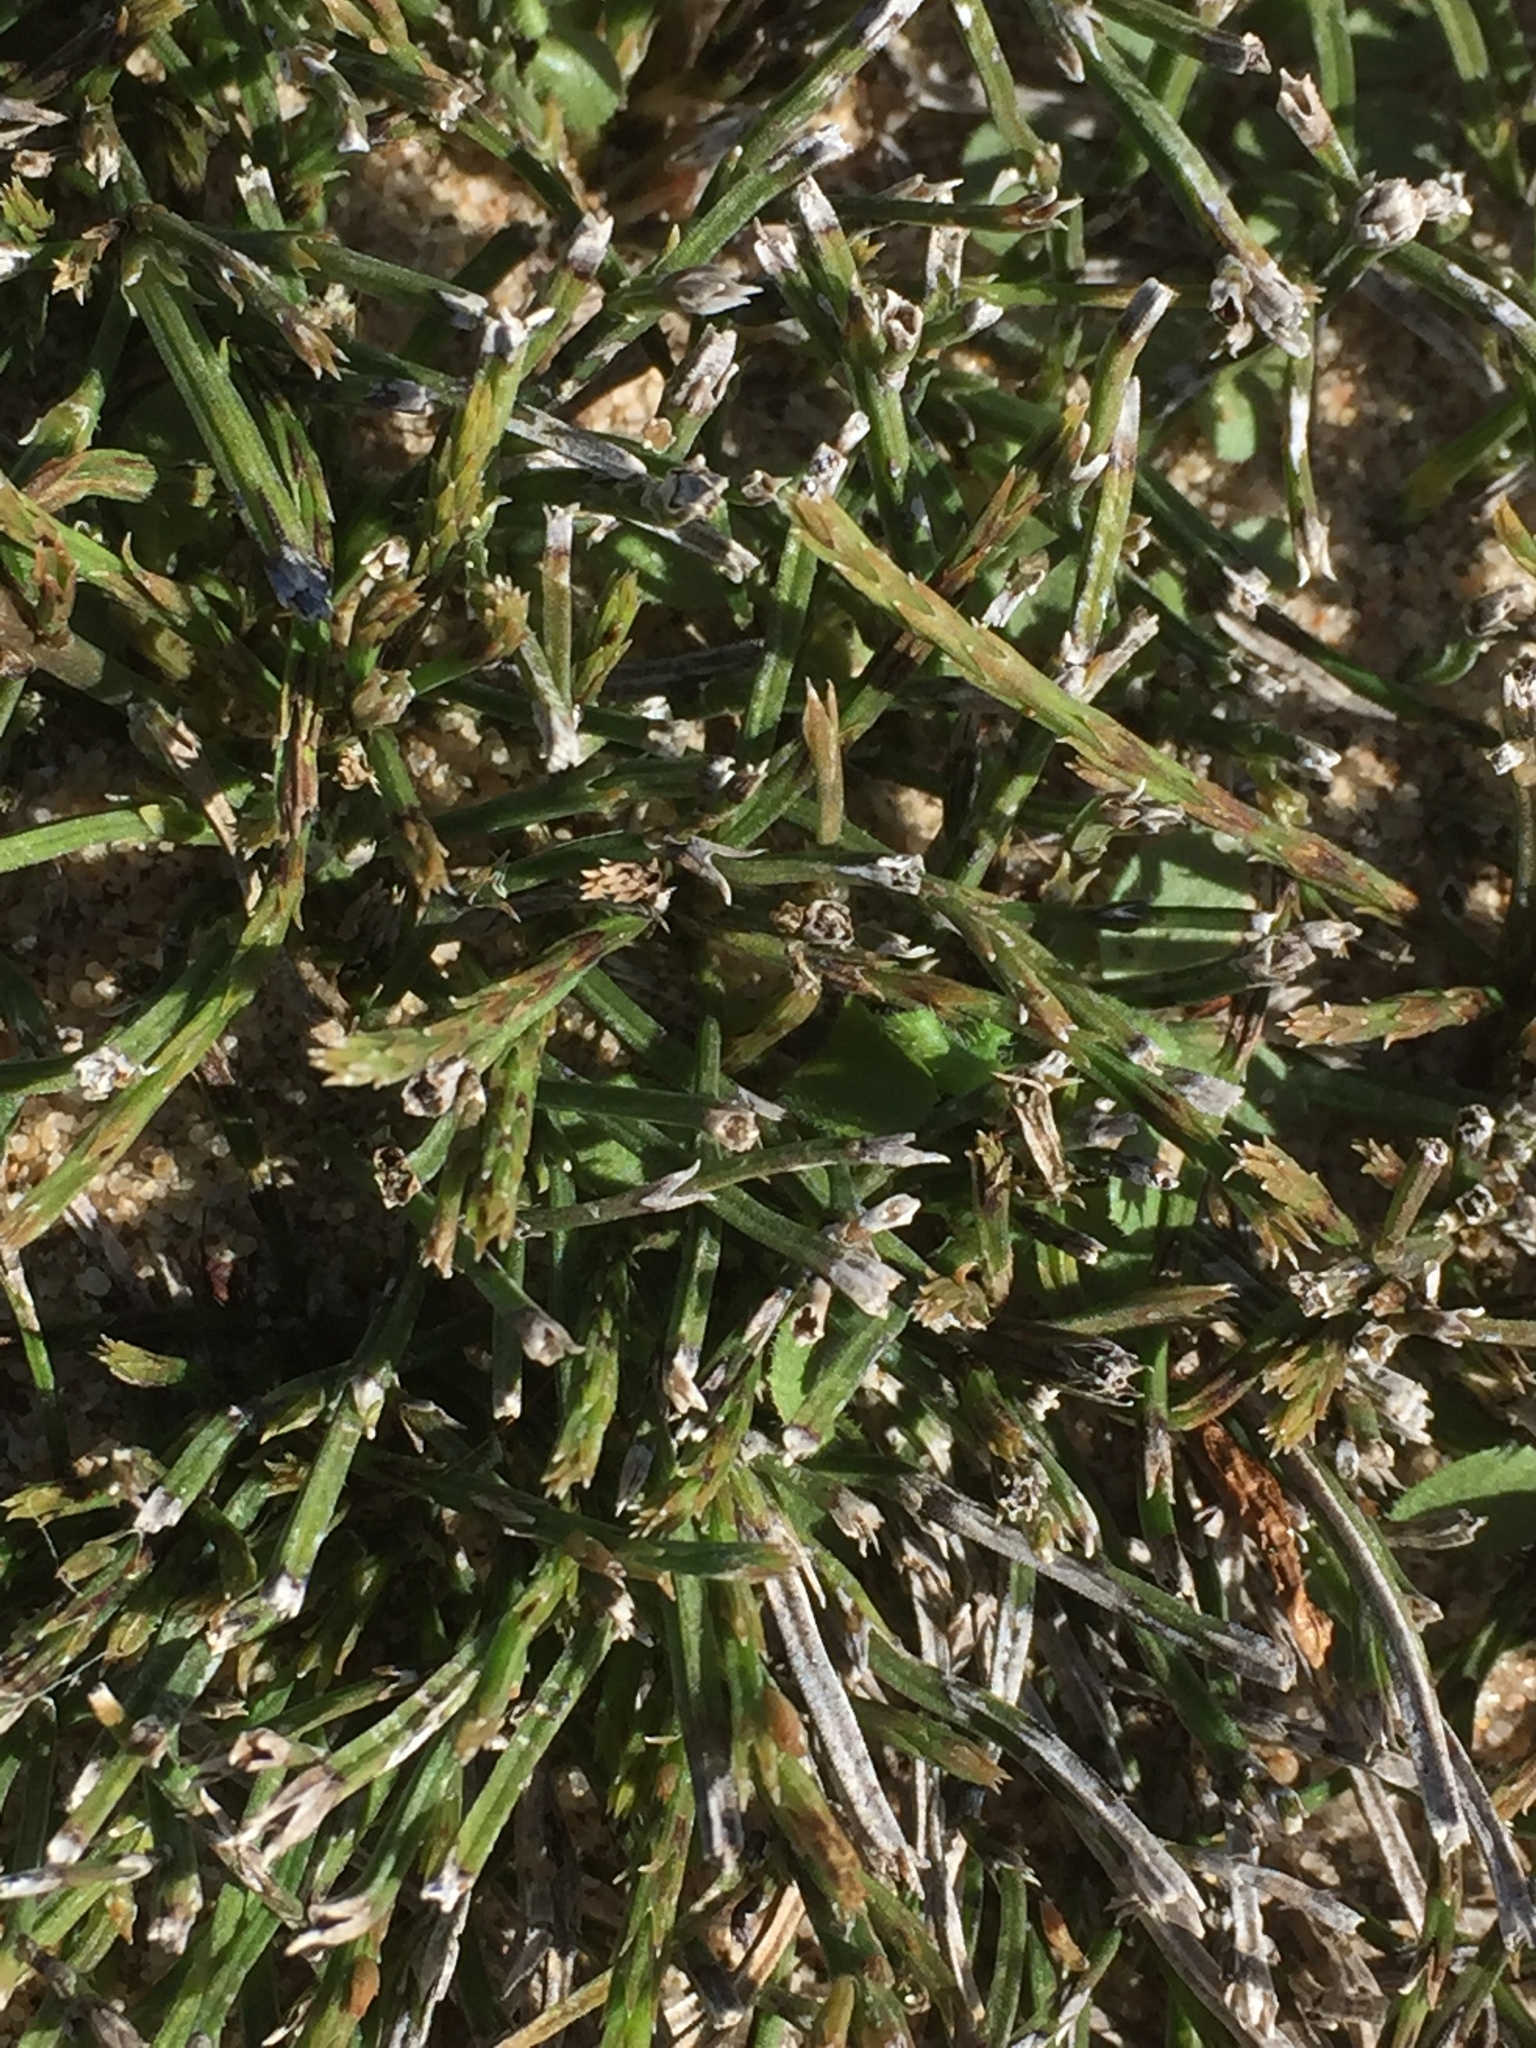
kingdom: Plantae
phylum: Tracheophyta
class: Polypodiopsida
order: Equisetales
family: Equisetaceae
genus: Equisetum
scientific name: Equisetum arvense
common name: Field horsetail
